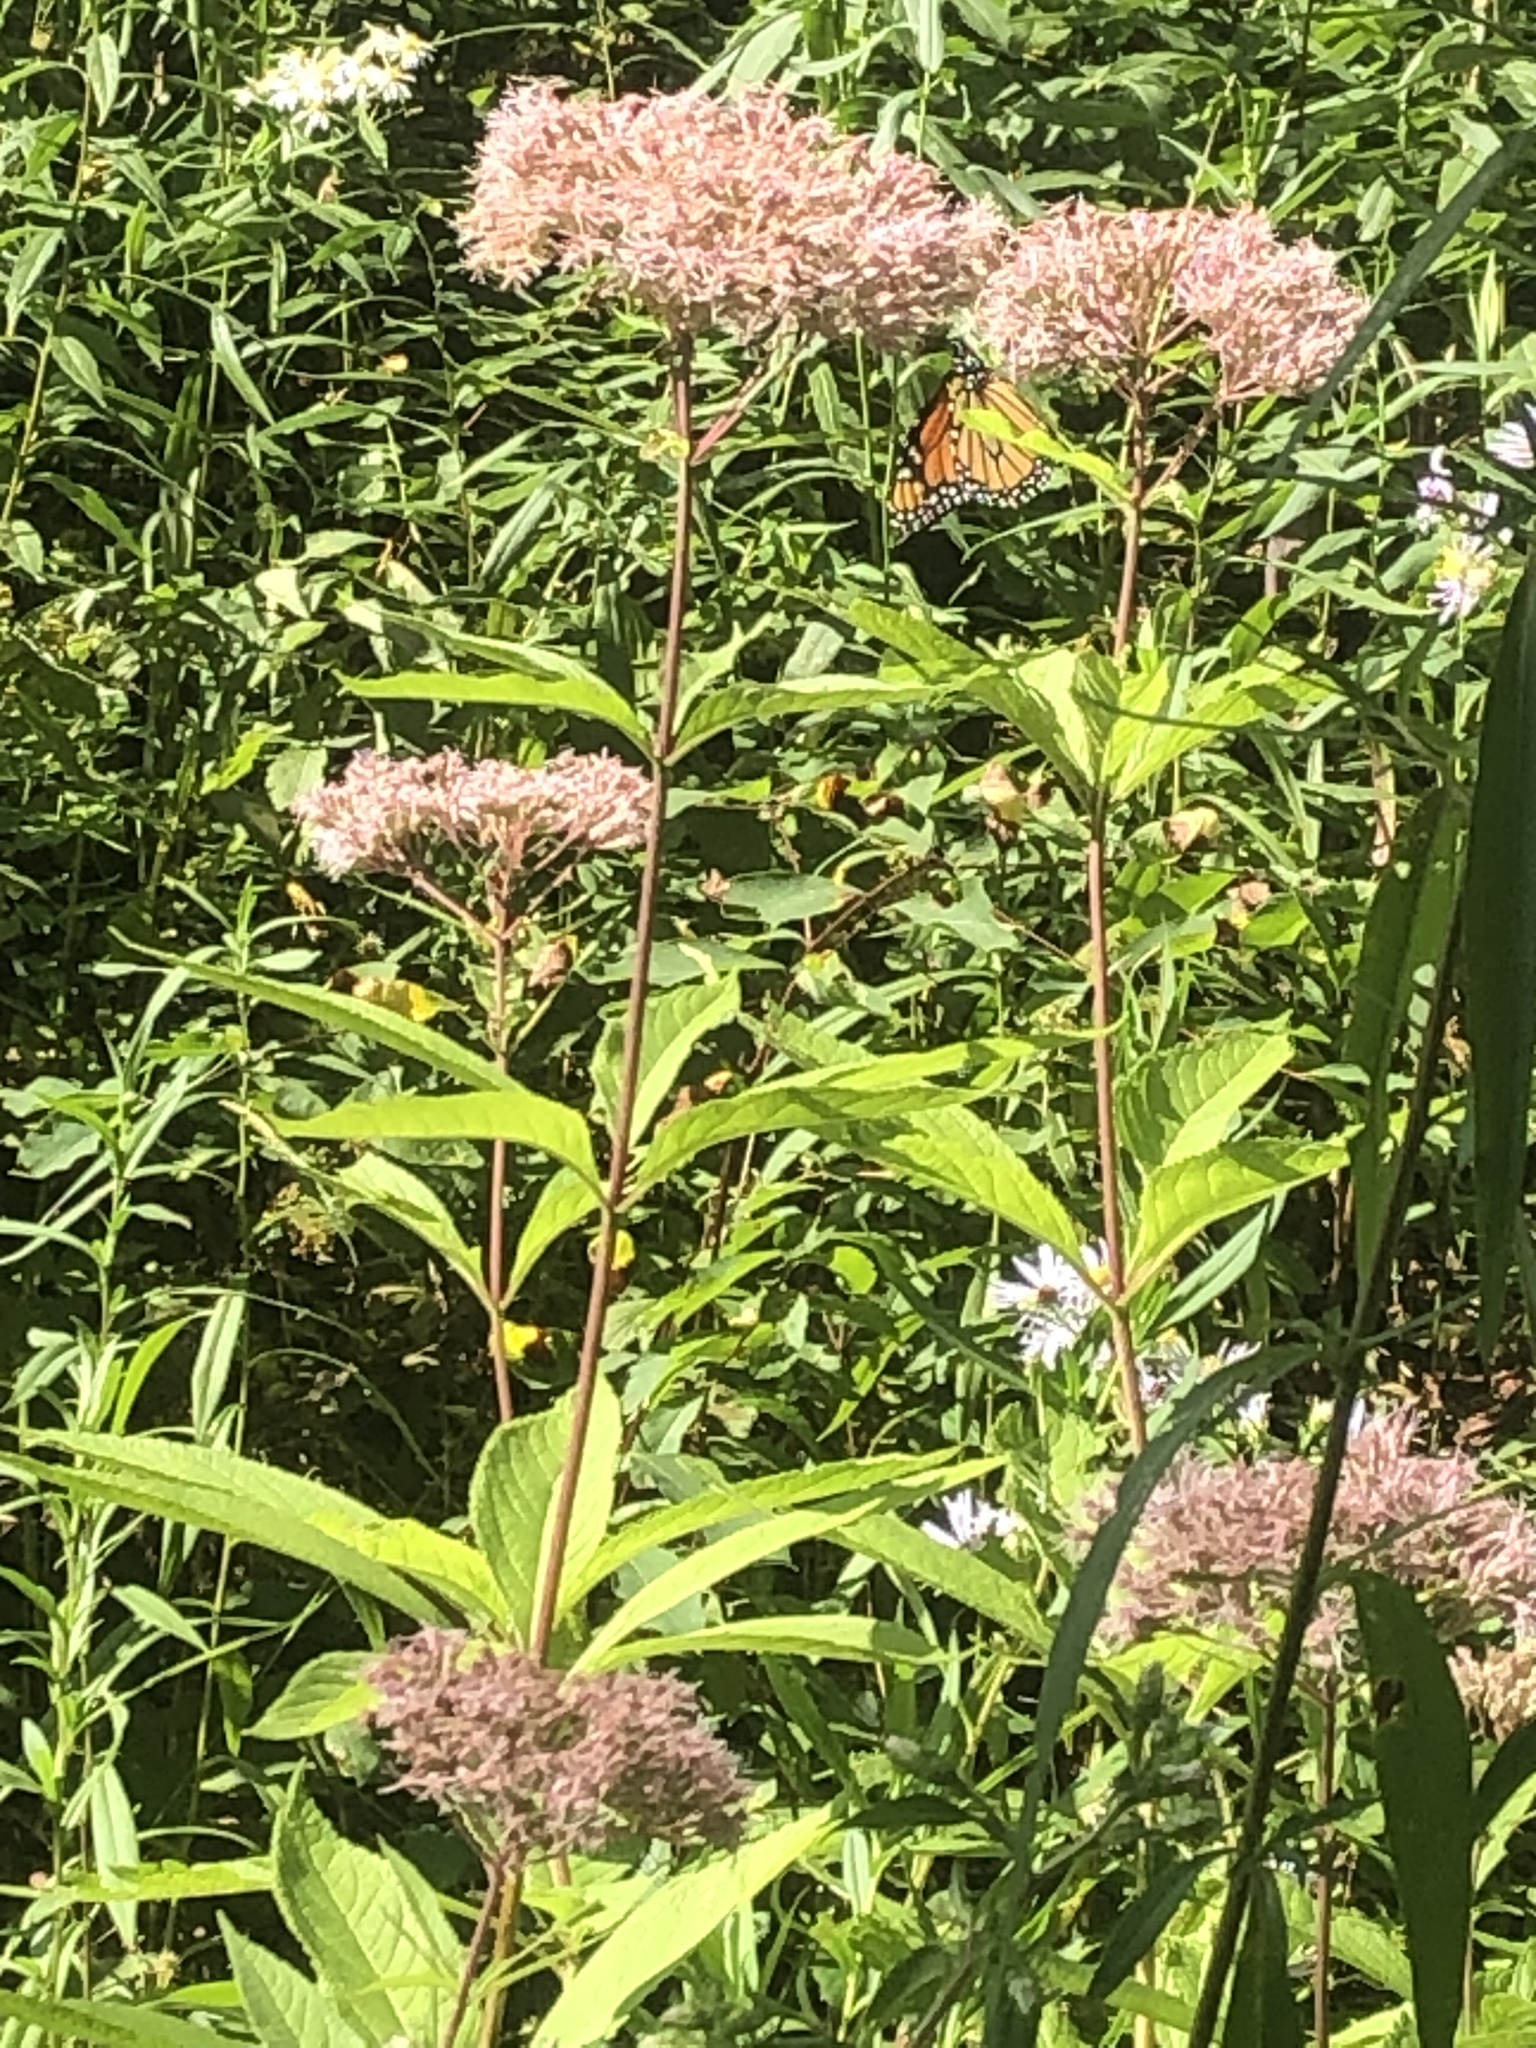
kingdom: Animalia
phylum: Arthropoda
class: Insecta
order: Lepidoptera
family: Nymphalidae
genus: Danaus
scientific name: Danaus plexippus
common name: Monarch
